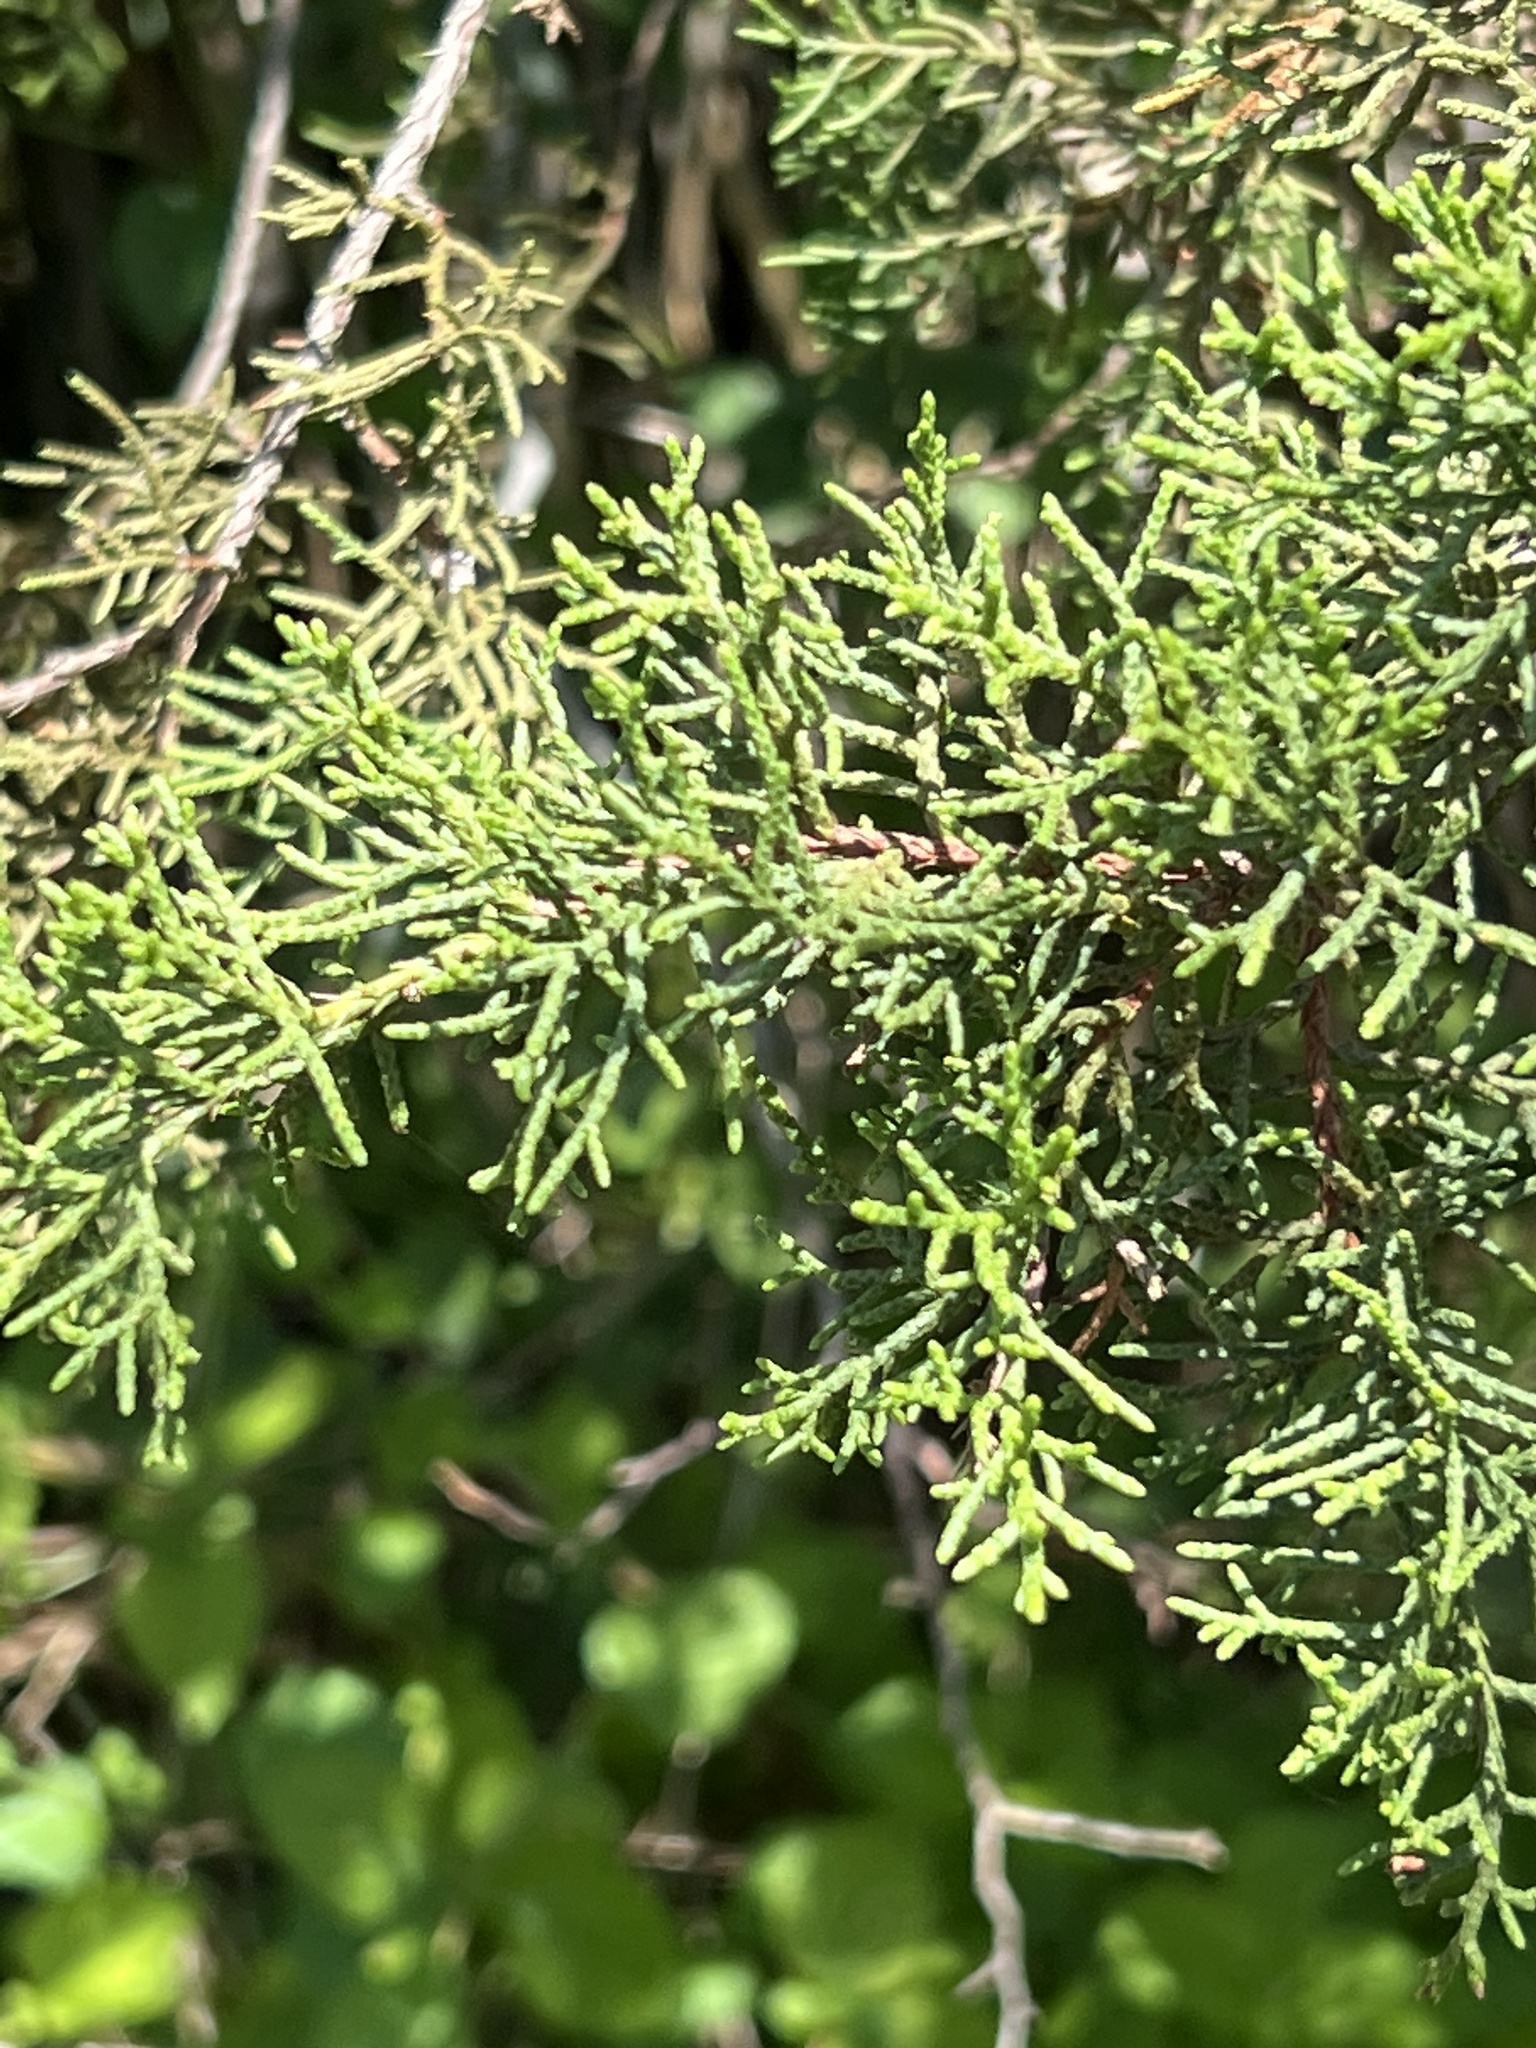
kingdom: Plantae
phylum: Tracheophyta
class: Pinopsida
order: Pinales
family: Cupressaceae
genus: Juniperus
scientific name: Juniperus ashei
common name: Mexican juniper
